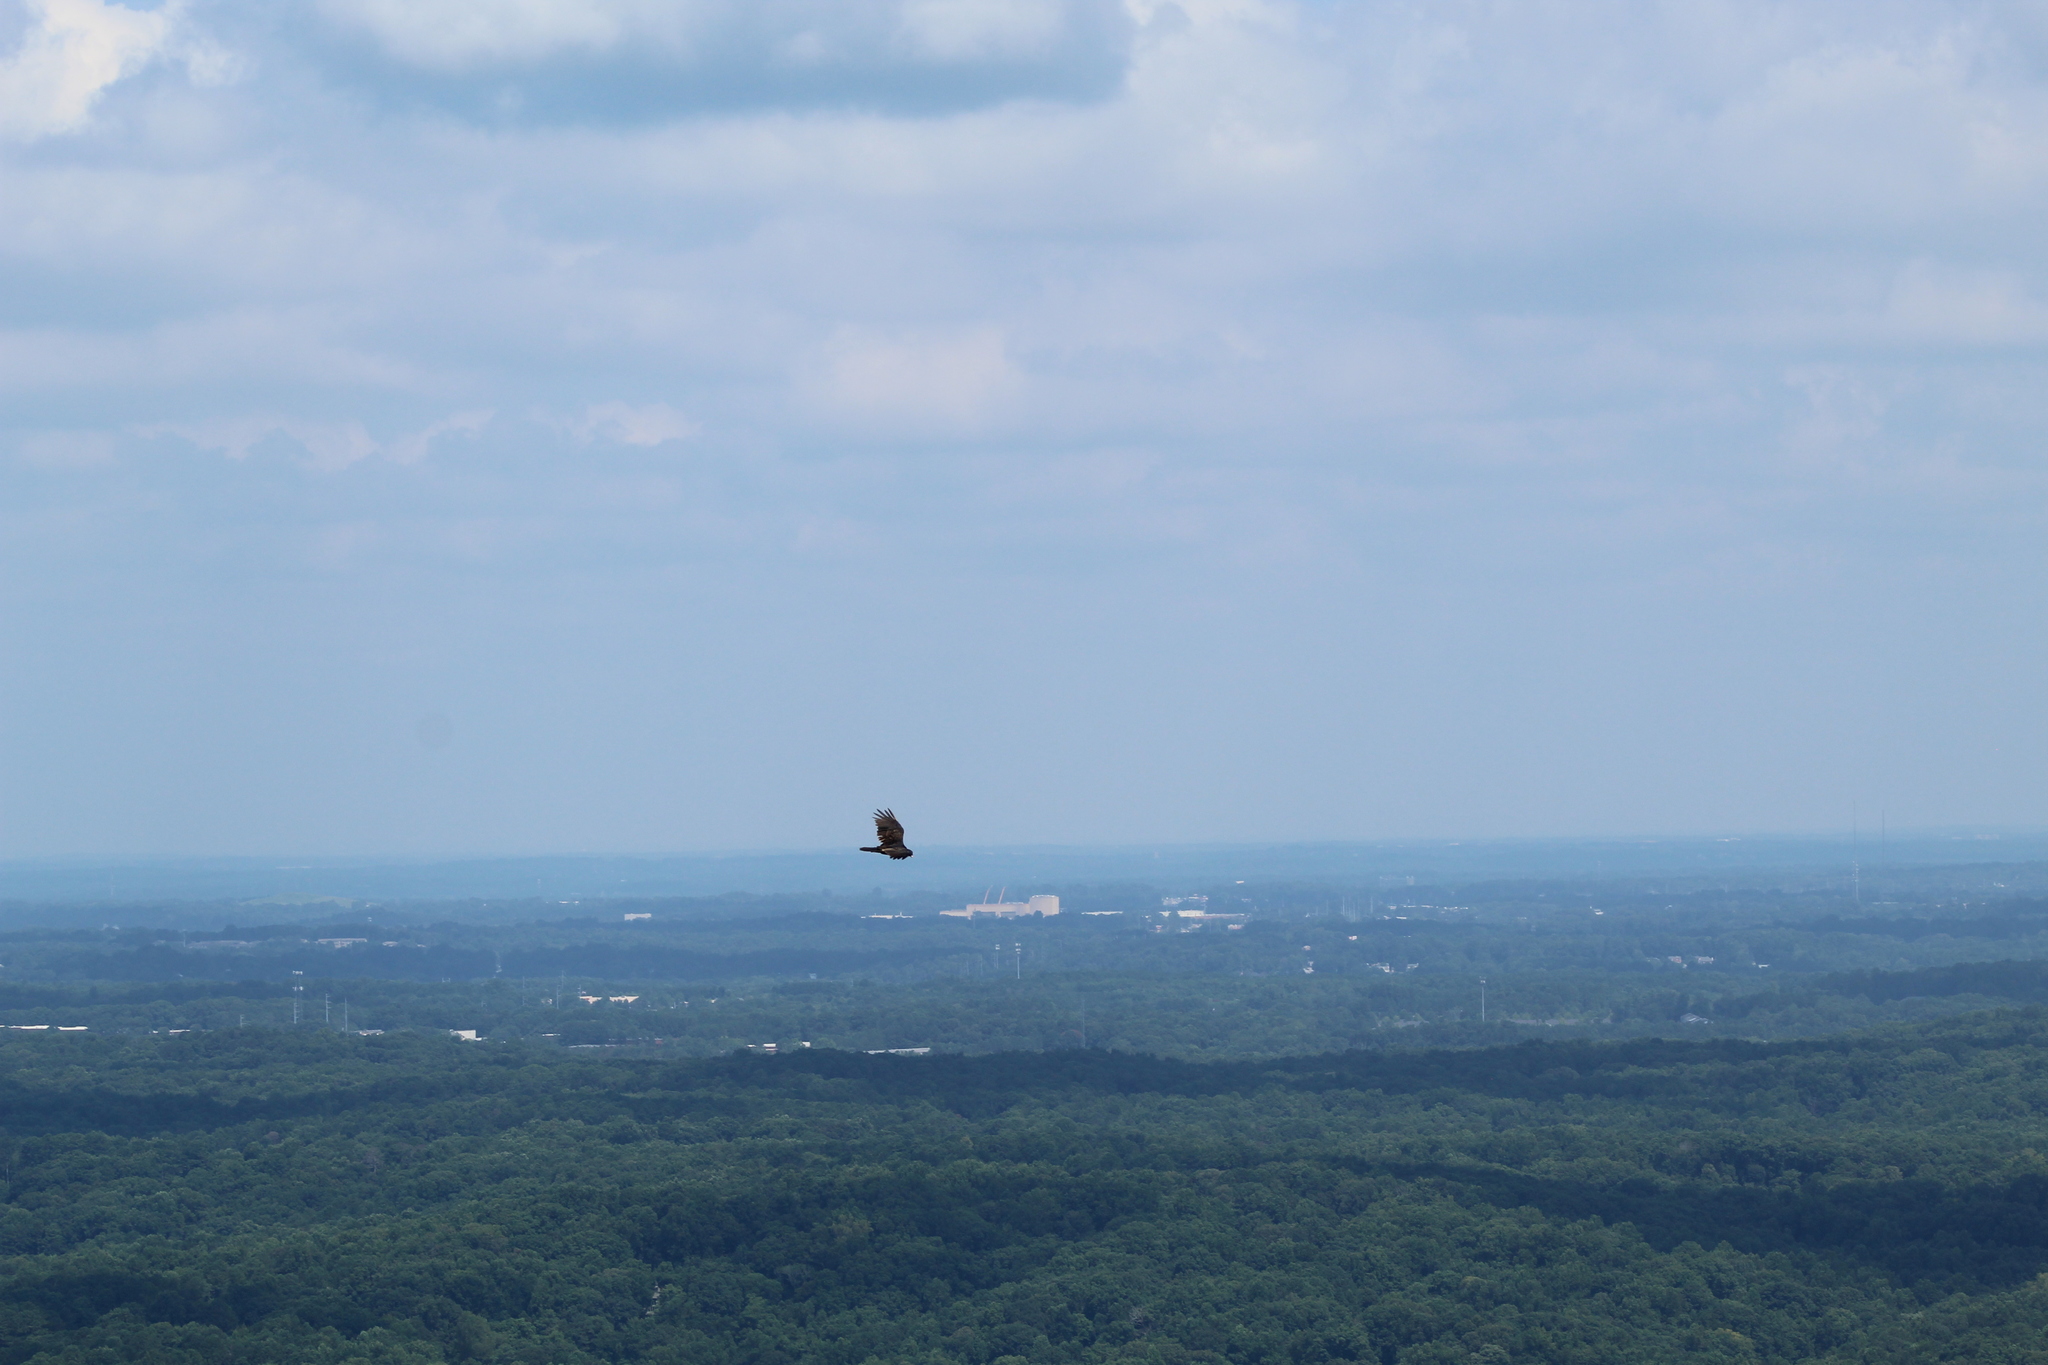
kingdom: Animalia
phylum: Chordata
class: Aves
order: Accipitriformes
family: Cathartidae
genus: Cathartes
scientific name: Cathartes aura
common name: Turkey vulture
